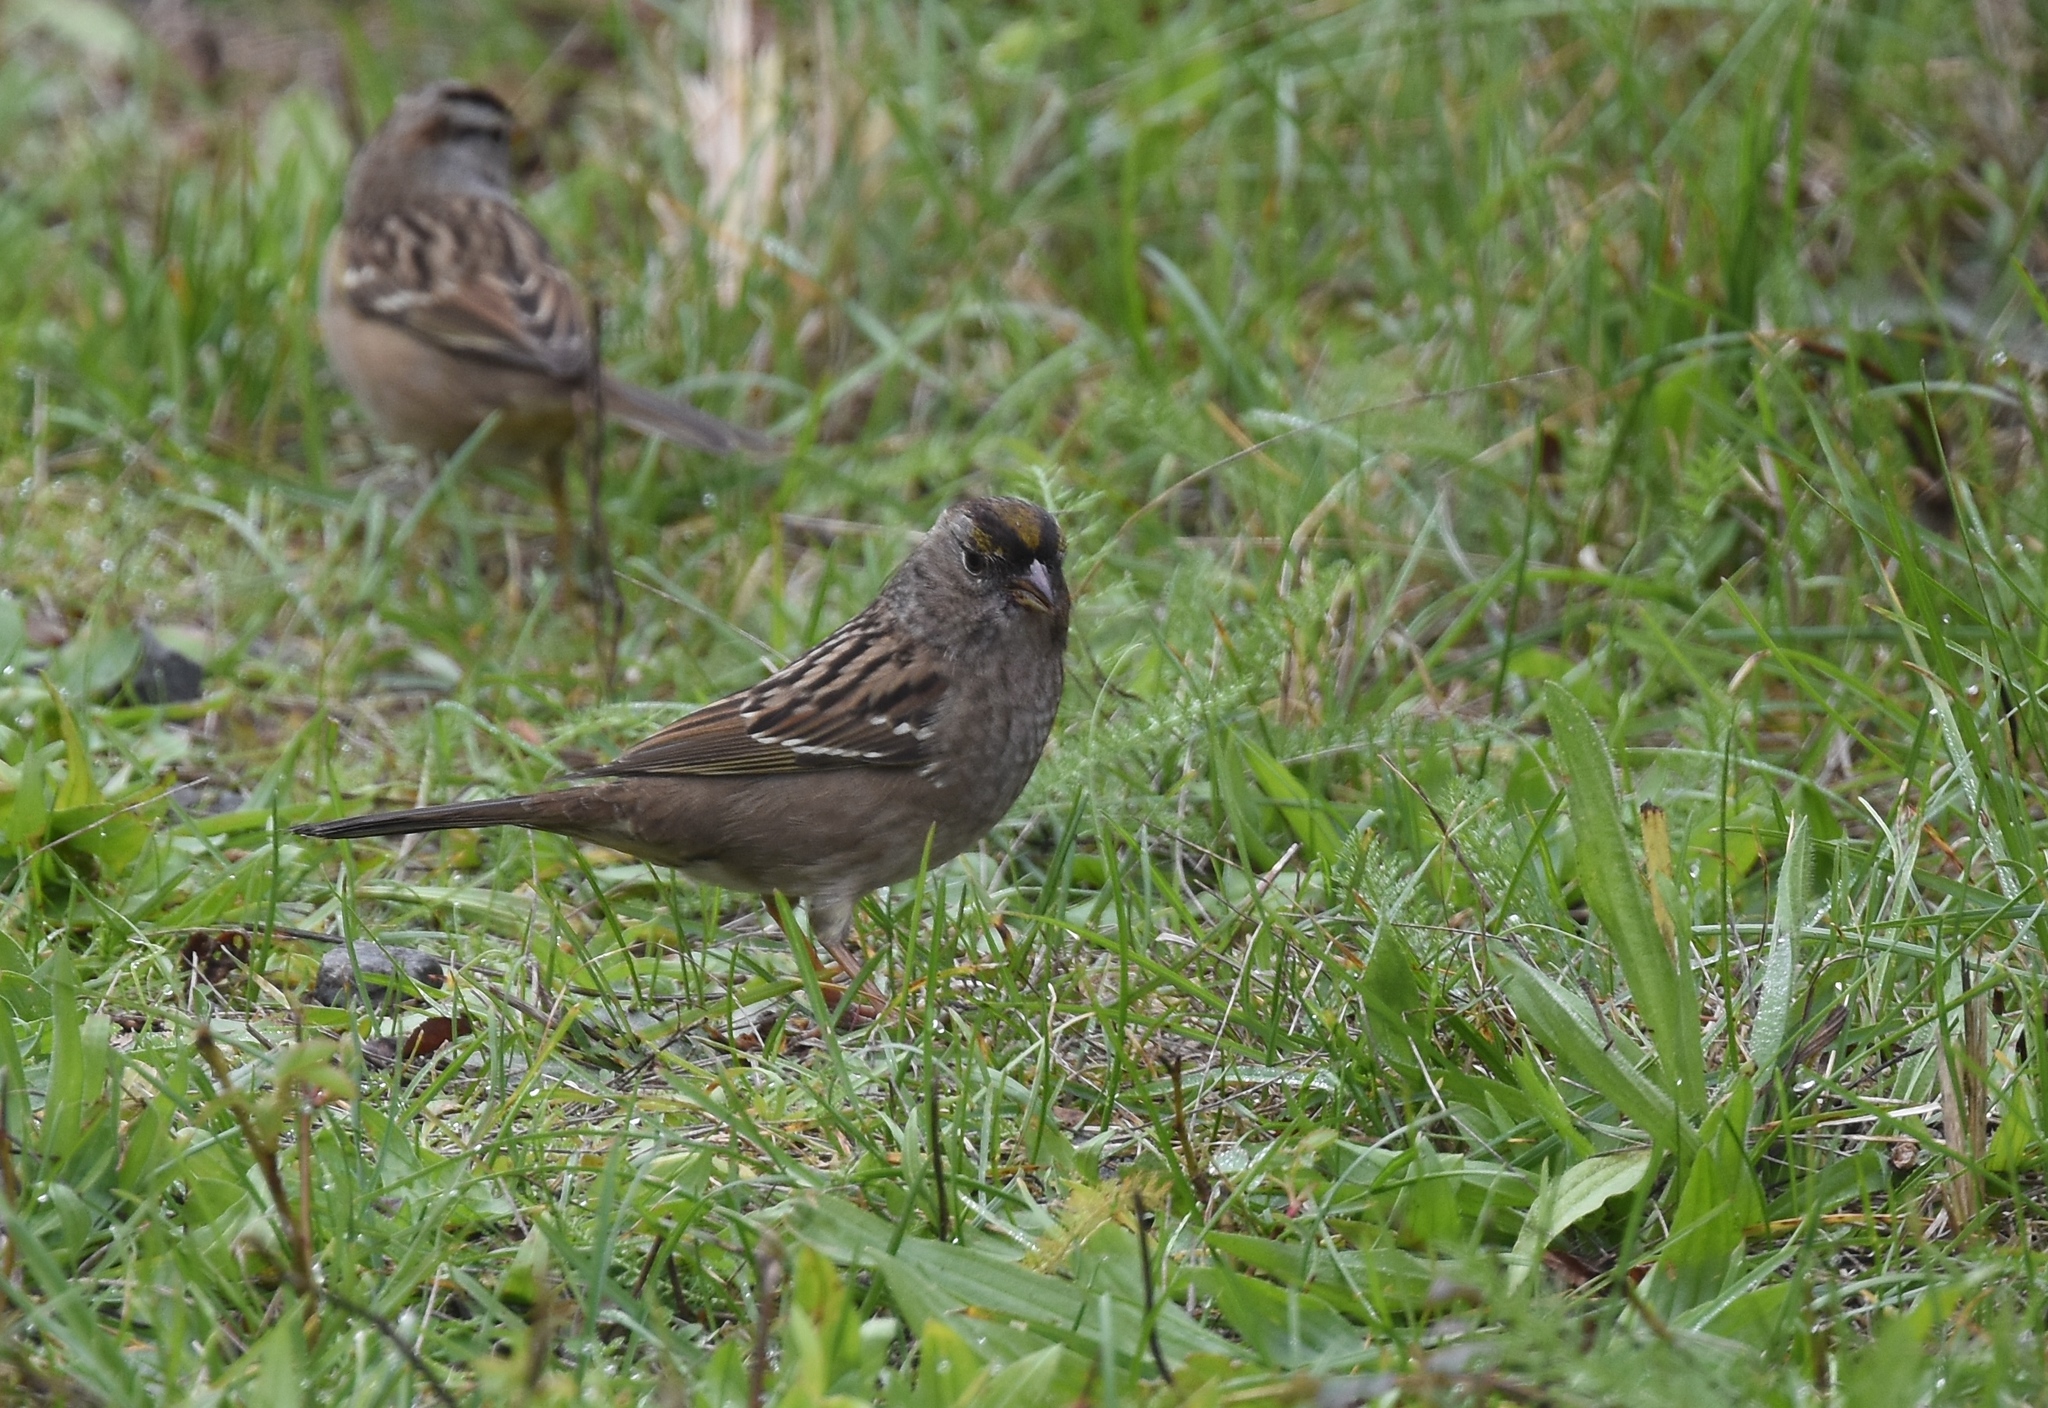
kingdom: Animalia
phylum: Chordata
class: Aves
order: Passeriformes
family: Passerellidae
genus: Zonotrichia
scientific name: Zonotrichia atricapilla
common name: Golden-crowned sparrow
